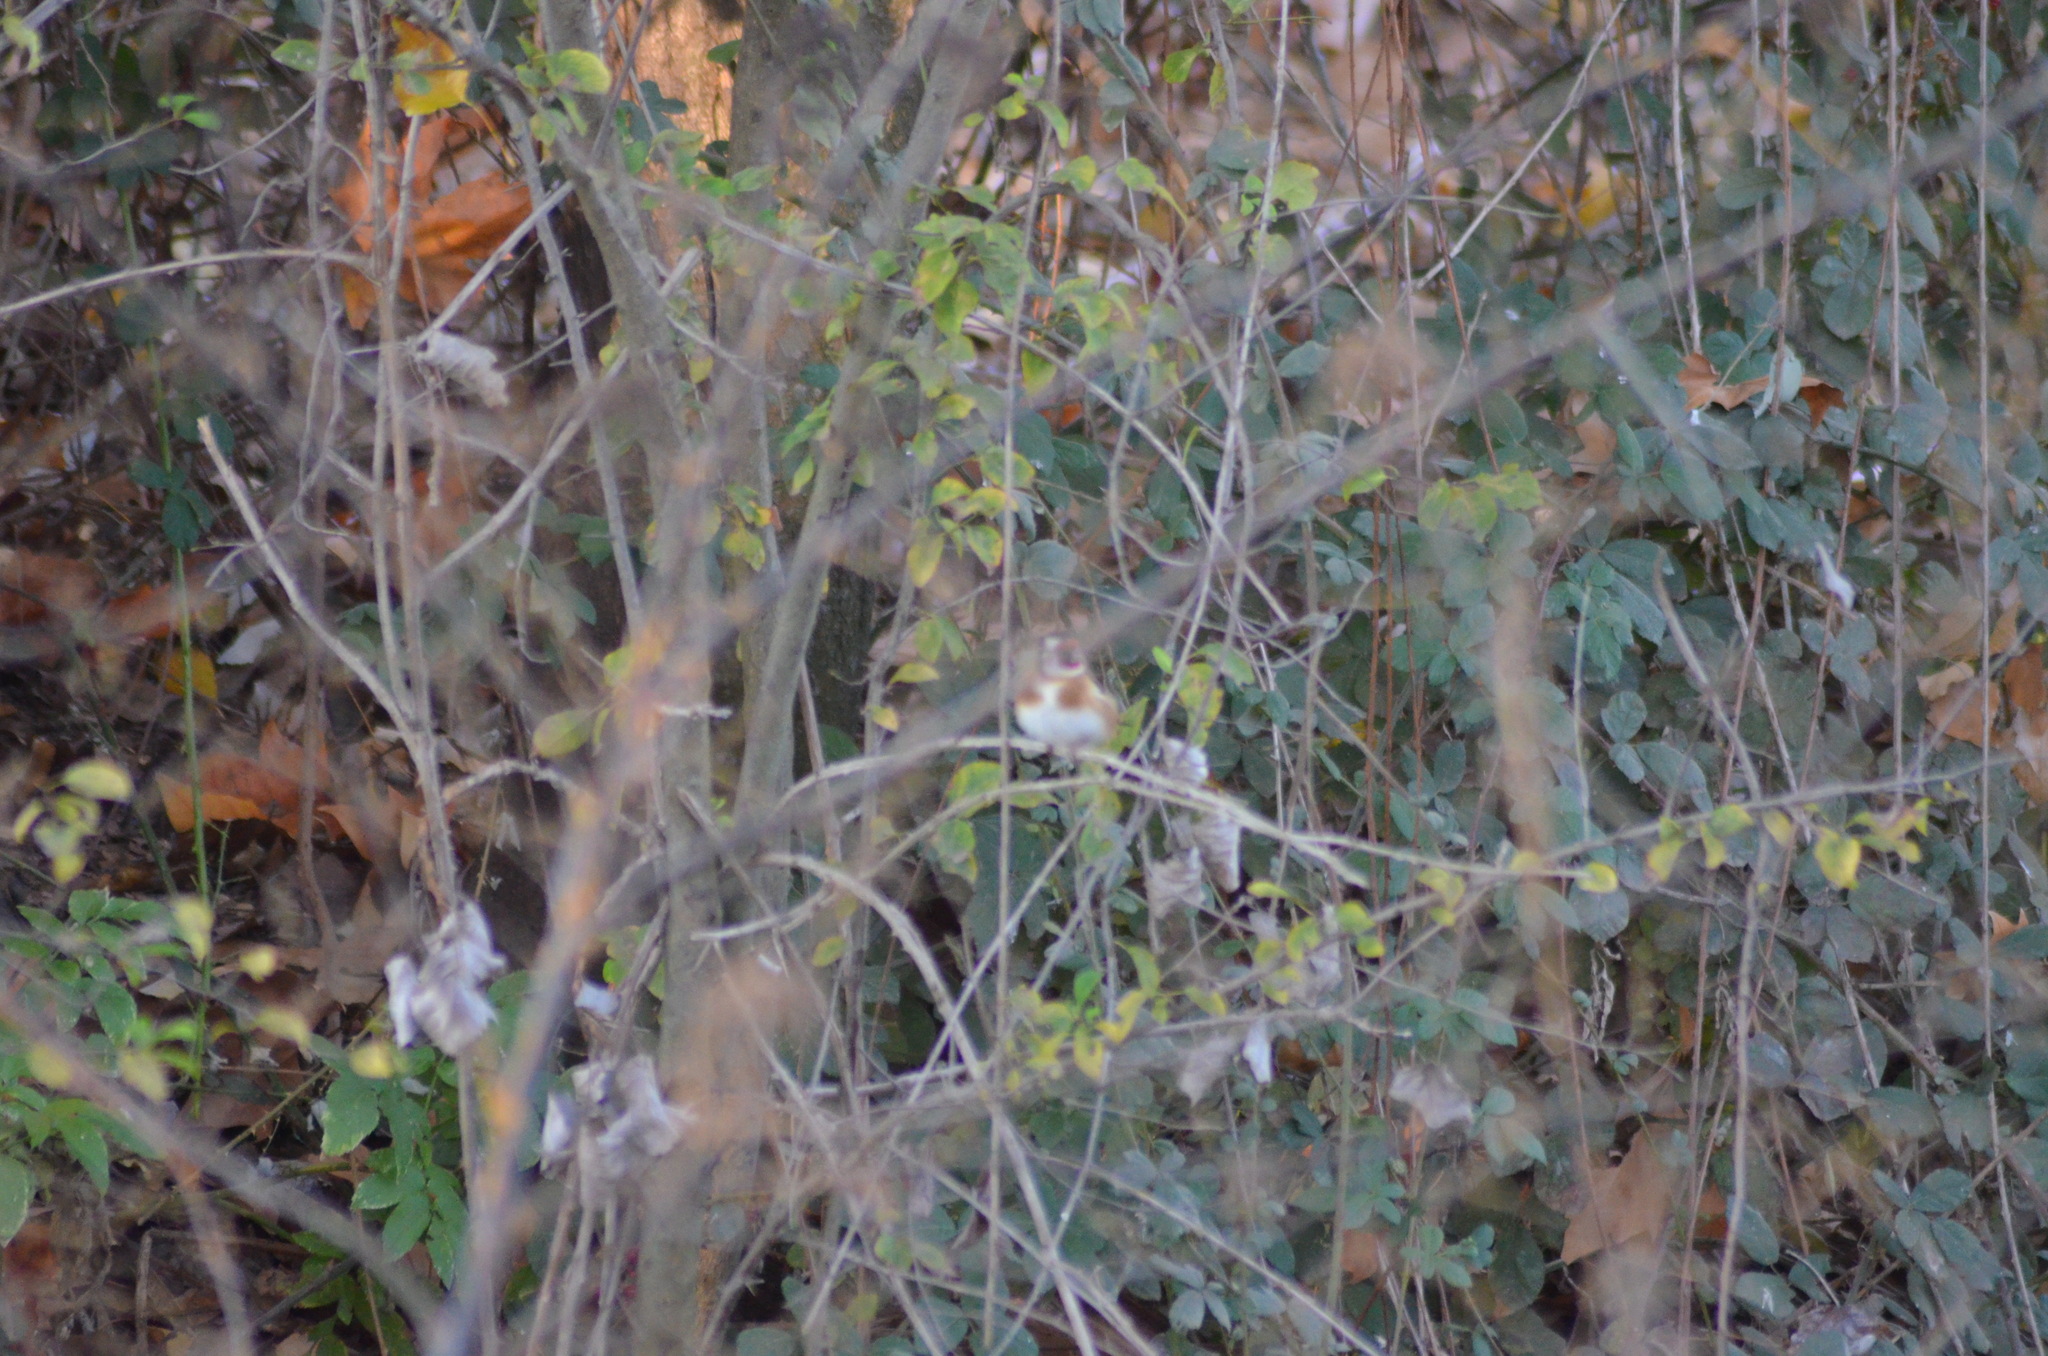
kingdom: Animalia
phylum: Chordata
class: Aves
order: Passeriformes
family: Fringillidae
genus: Carduelis
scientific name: Carduelis carduelis
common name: European goldfinch
